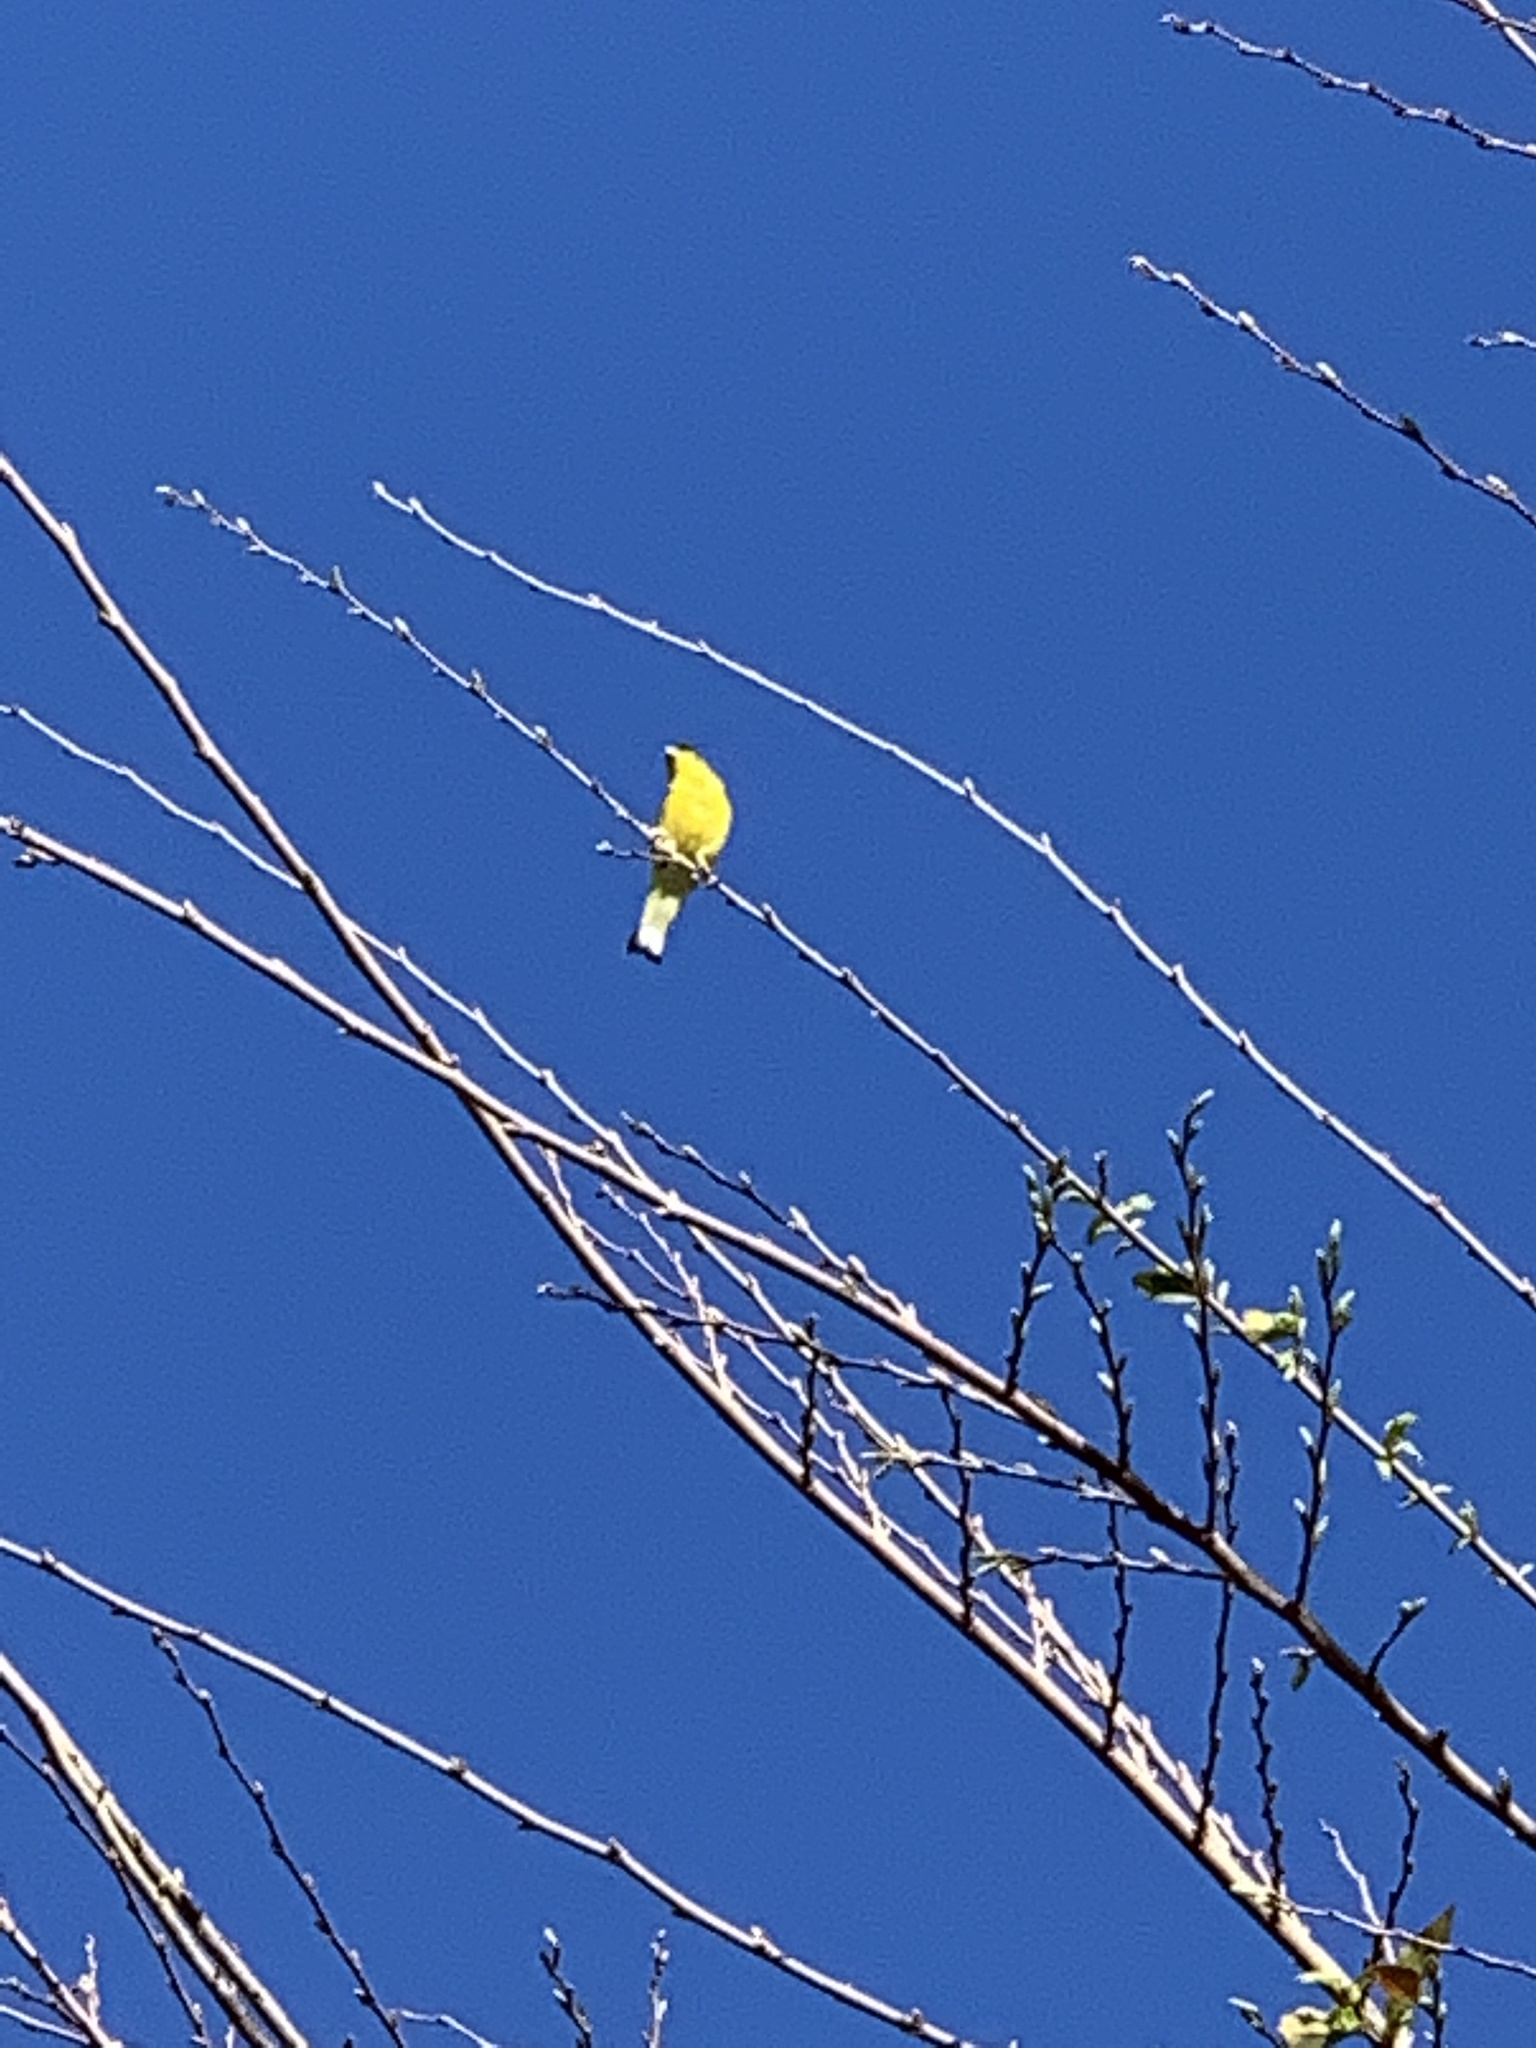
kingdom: Animalia
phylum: Chordata
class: Aves
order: Passeriformes
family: Fringillidae
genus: Spinus
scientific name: Spinus psaltria
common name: Lesser goldfinch
